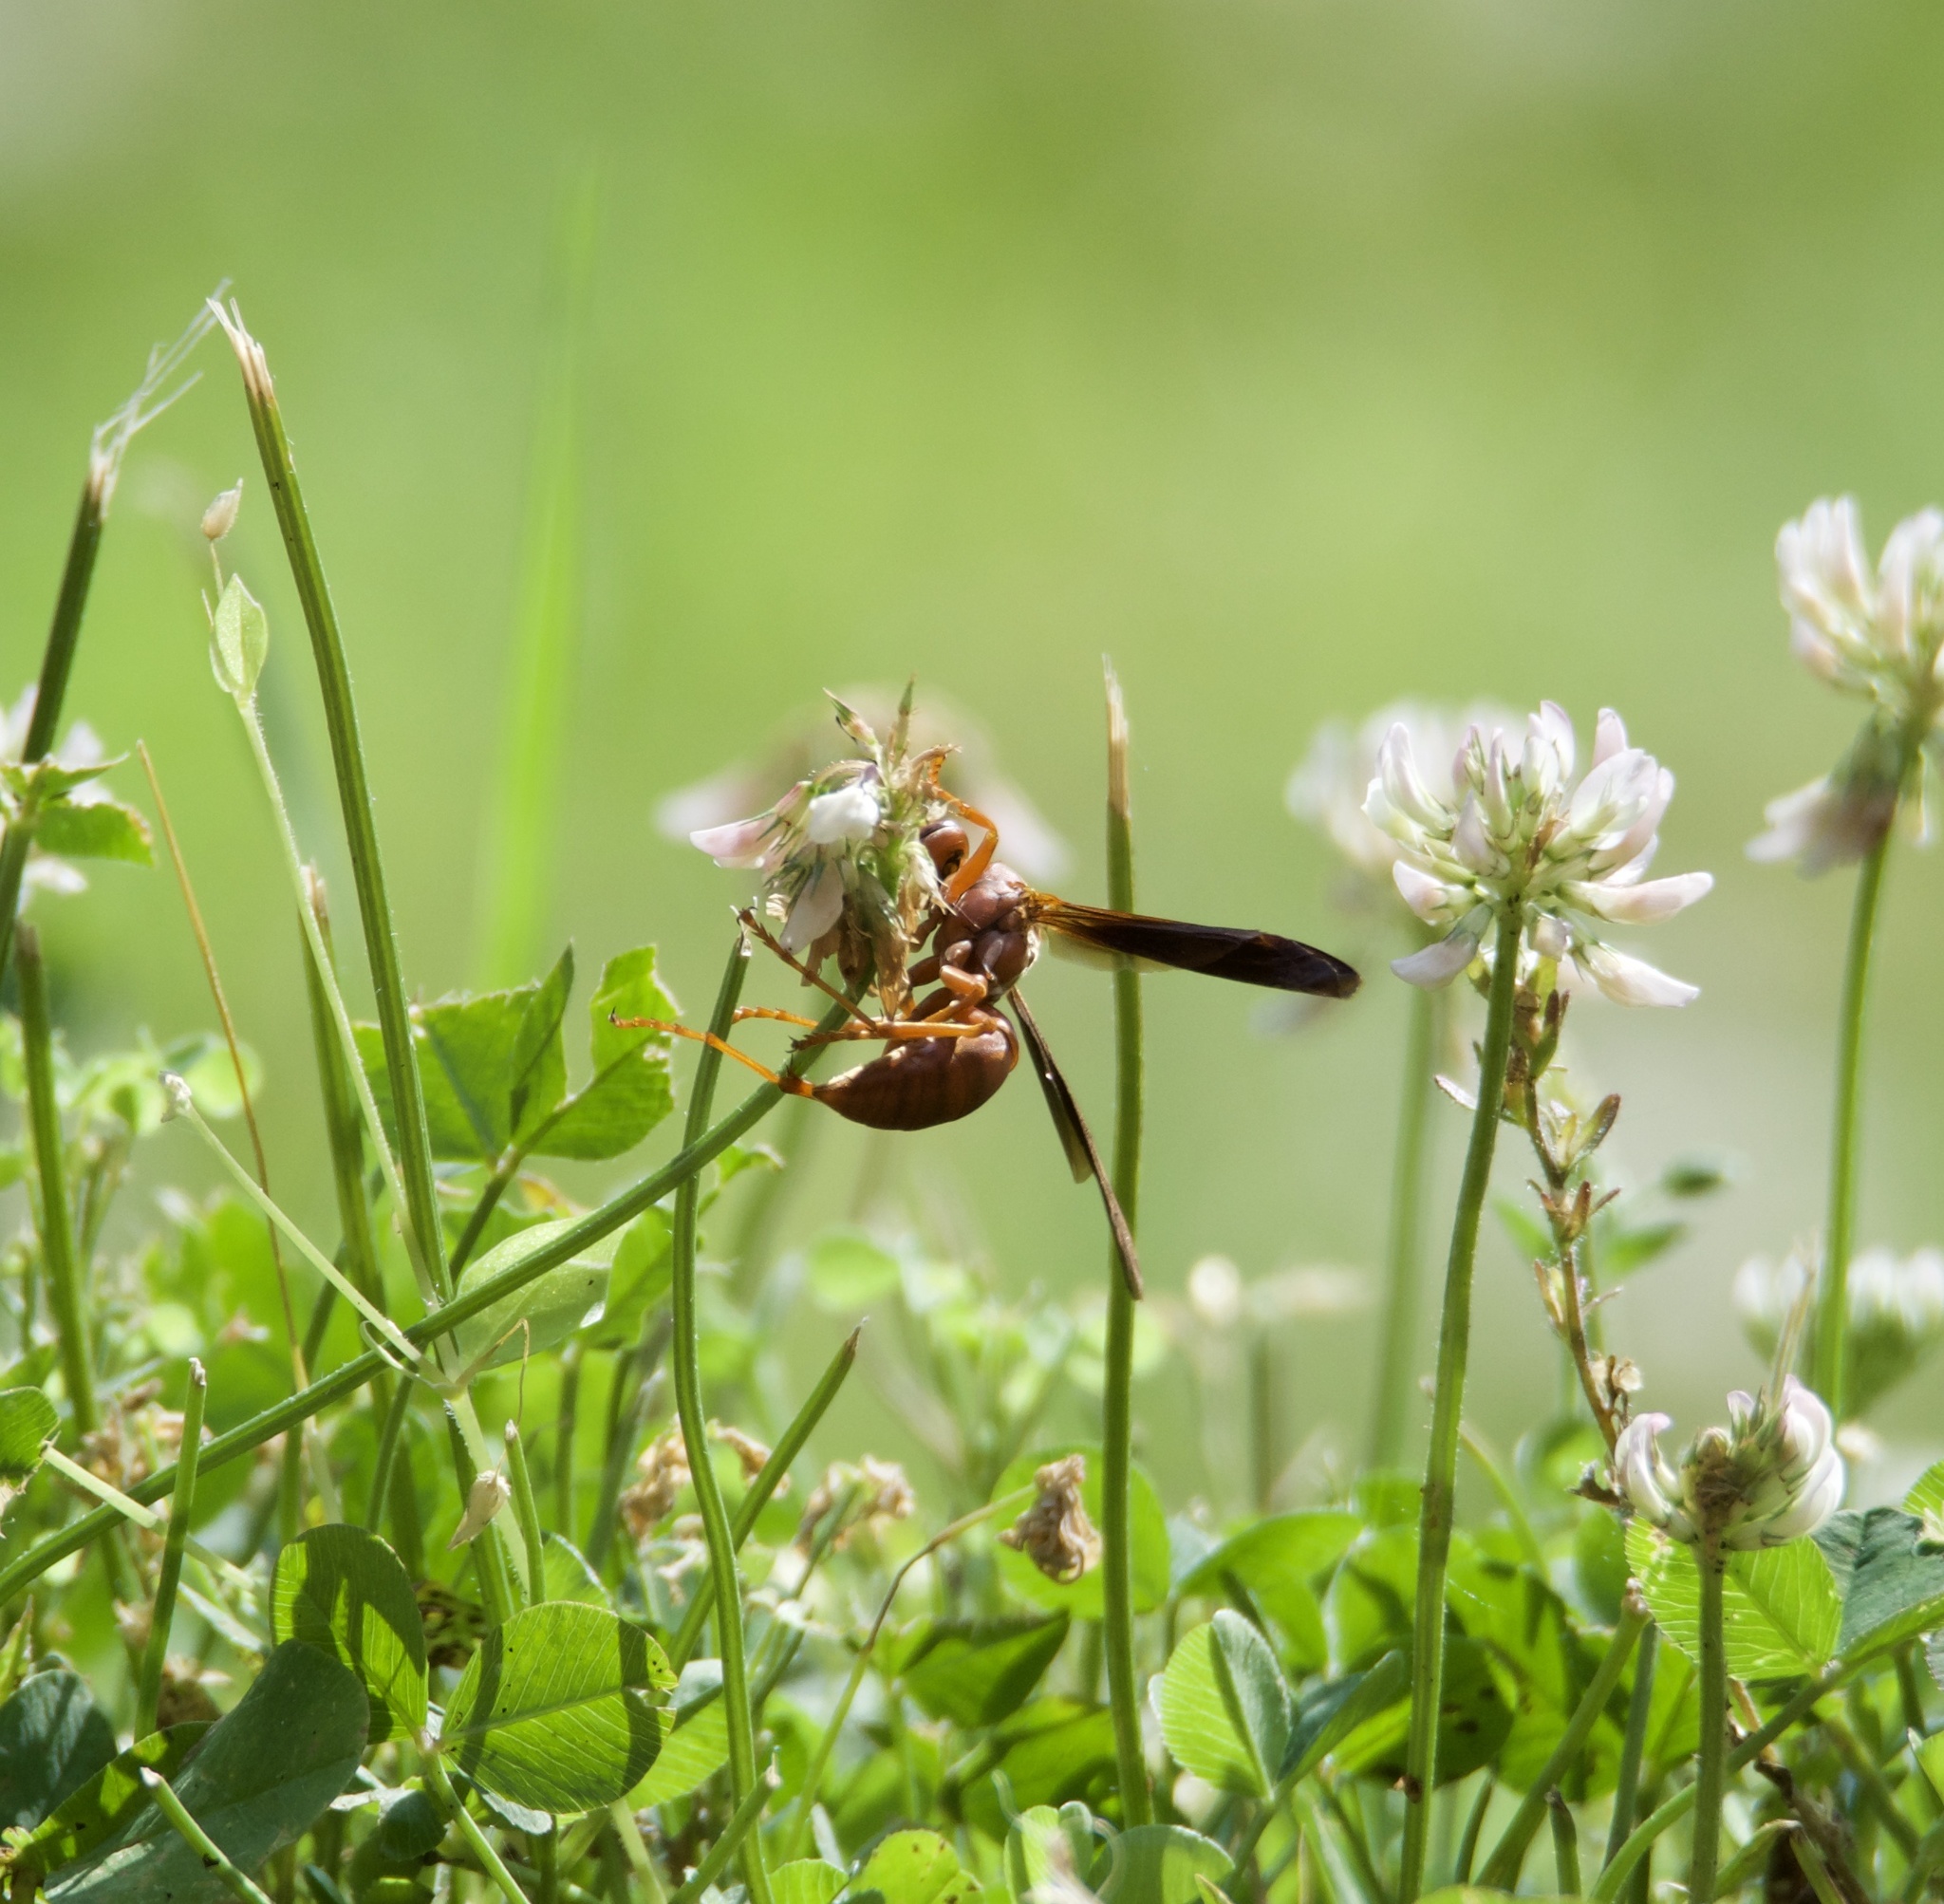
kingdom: Animalia
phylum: Arthropoda
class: Insecta
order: Hymenoptera
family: Vespidae
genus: Fuscopolistes
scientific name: Fuscopolistes
